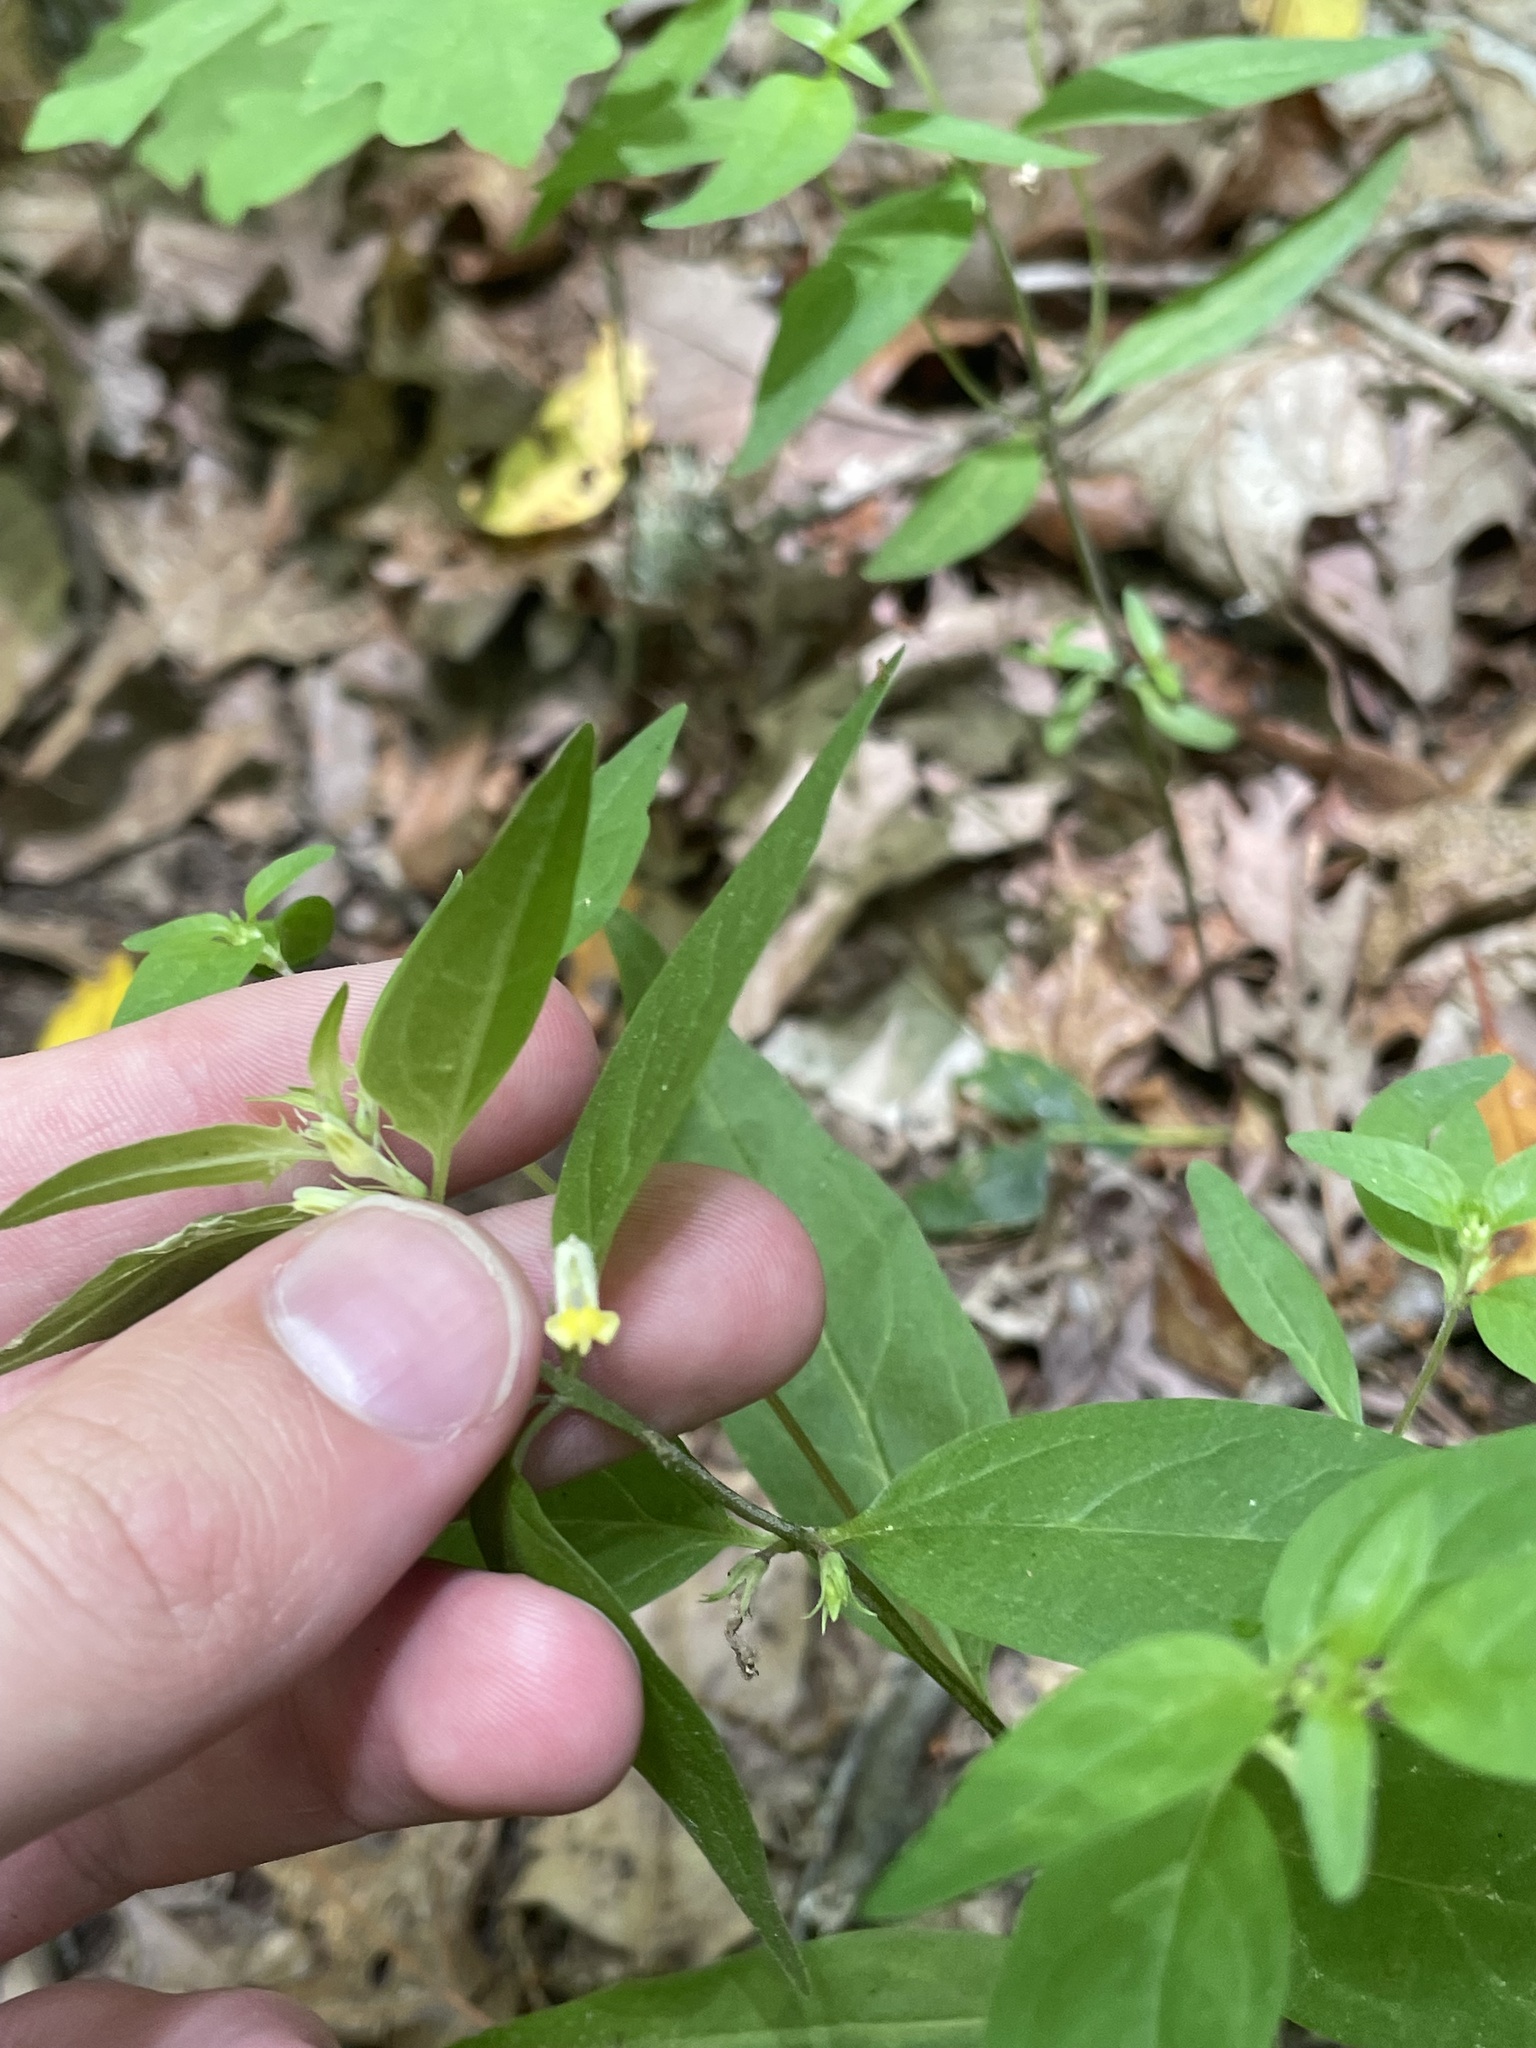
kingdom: Plantae
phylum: Tracheophyta
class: Magnoliopsida
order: Lamiales
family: Orobanchaceae
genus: Melampyrum
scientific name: Melampyrum lineare
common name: American cow-wheat
